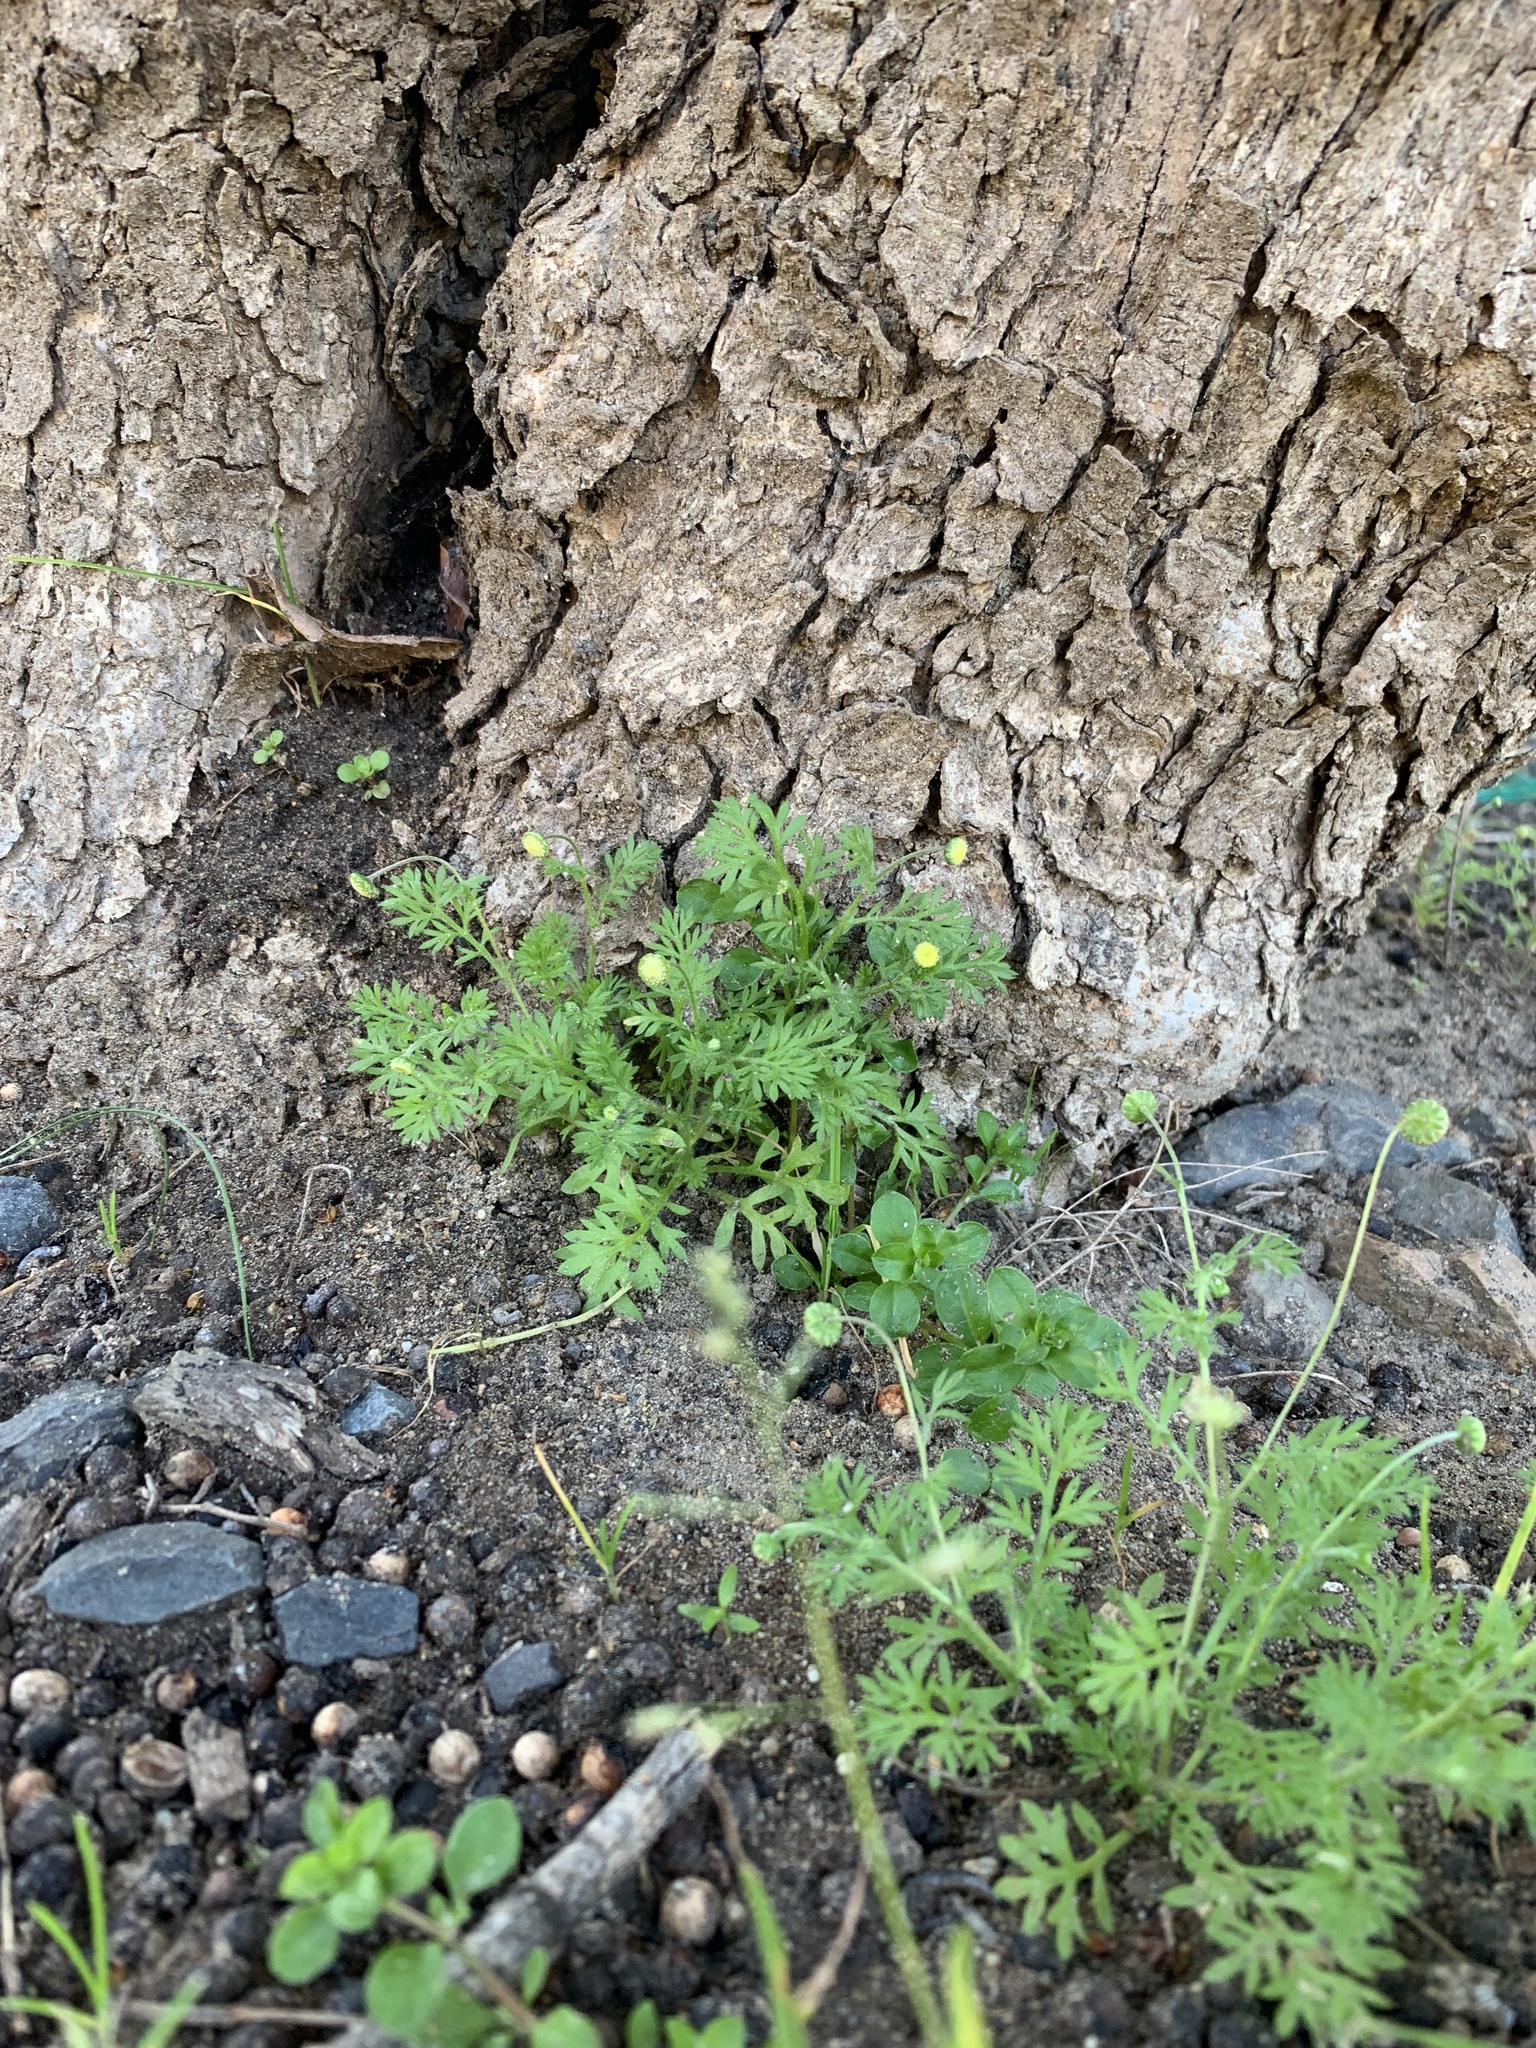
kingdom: Plantae
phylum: Tracheophyta
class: Magnoliopsida
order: Asterales
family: Asteraceae
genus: Cotula
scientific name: Cotula australis
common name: Australian waterbuttons
